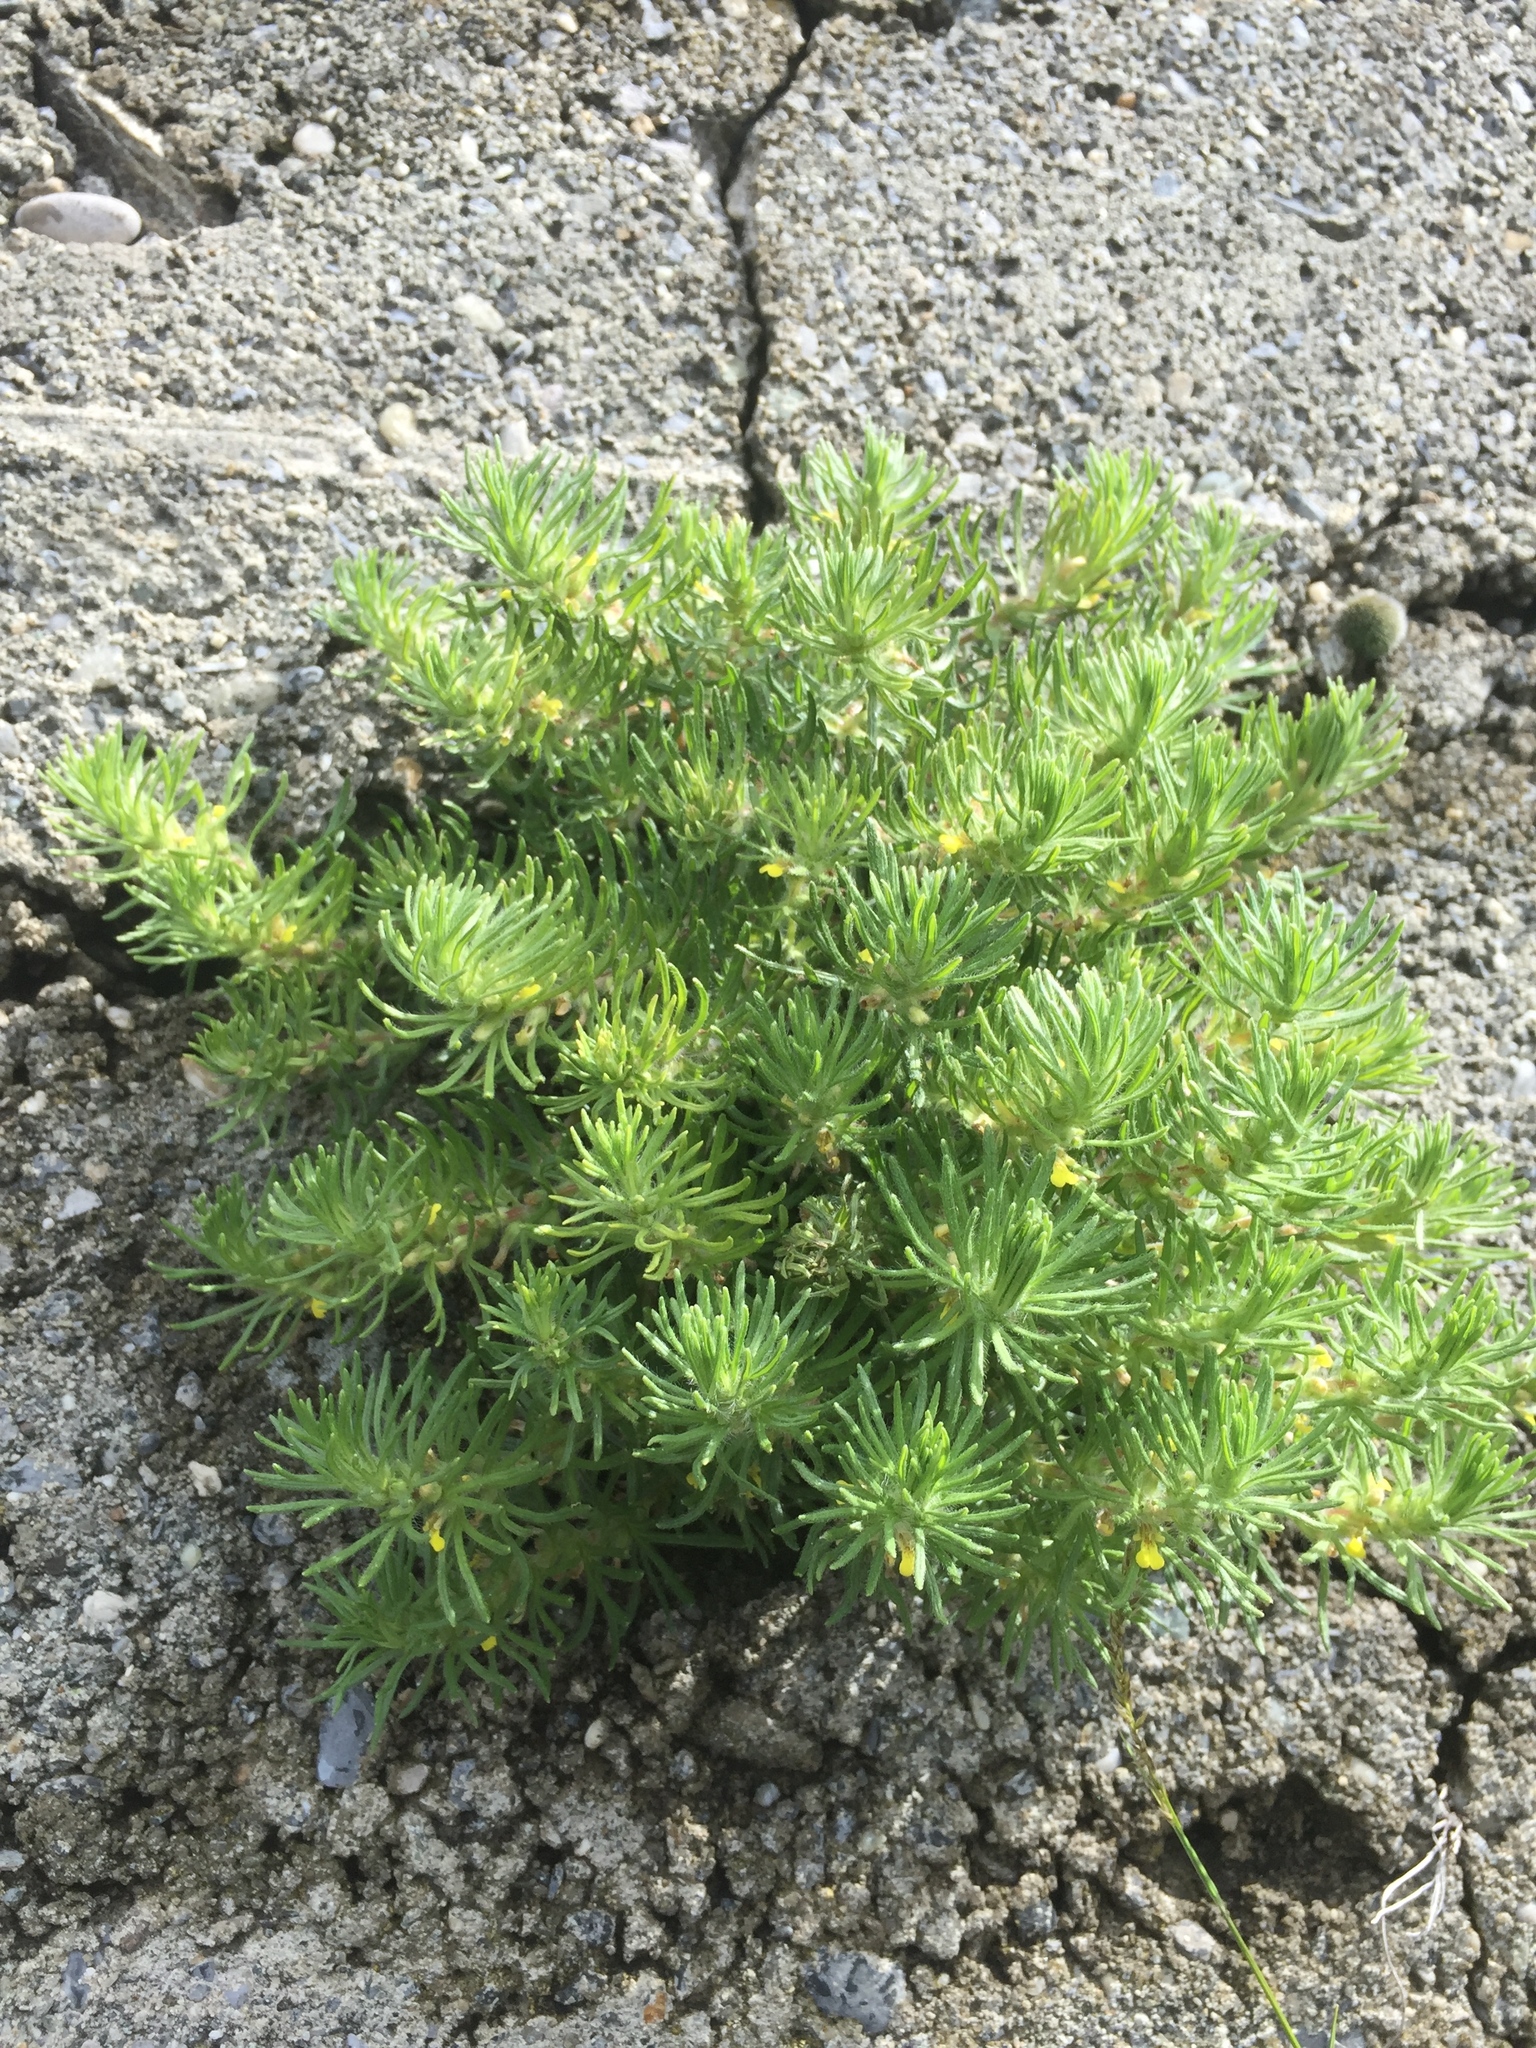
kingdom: Plantae
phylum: Tracheophyta
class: Magnoliopsida
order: Lamiales
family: Lamiaceae
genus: Ajuga
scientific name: Ajuga chamaepitys
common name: Ground-pine
